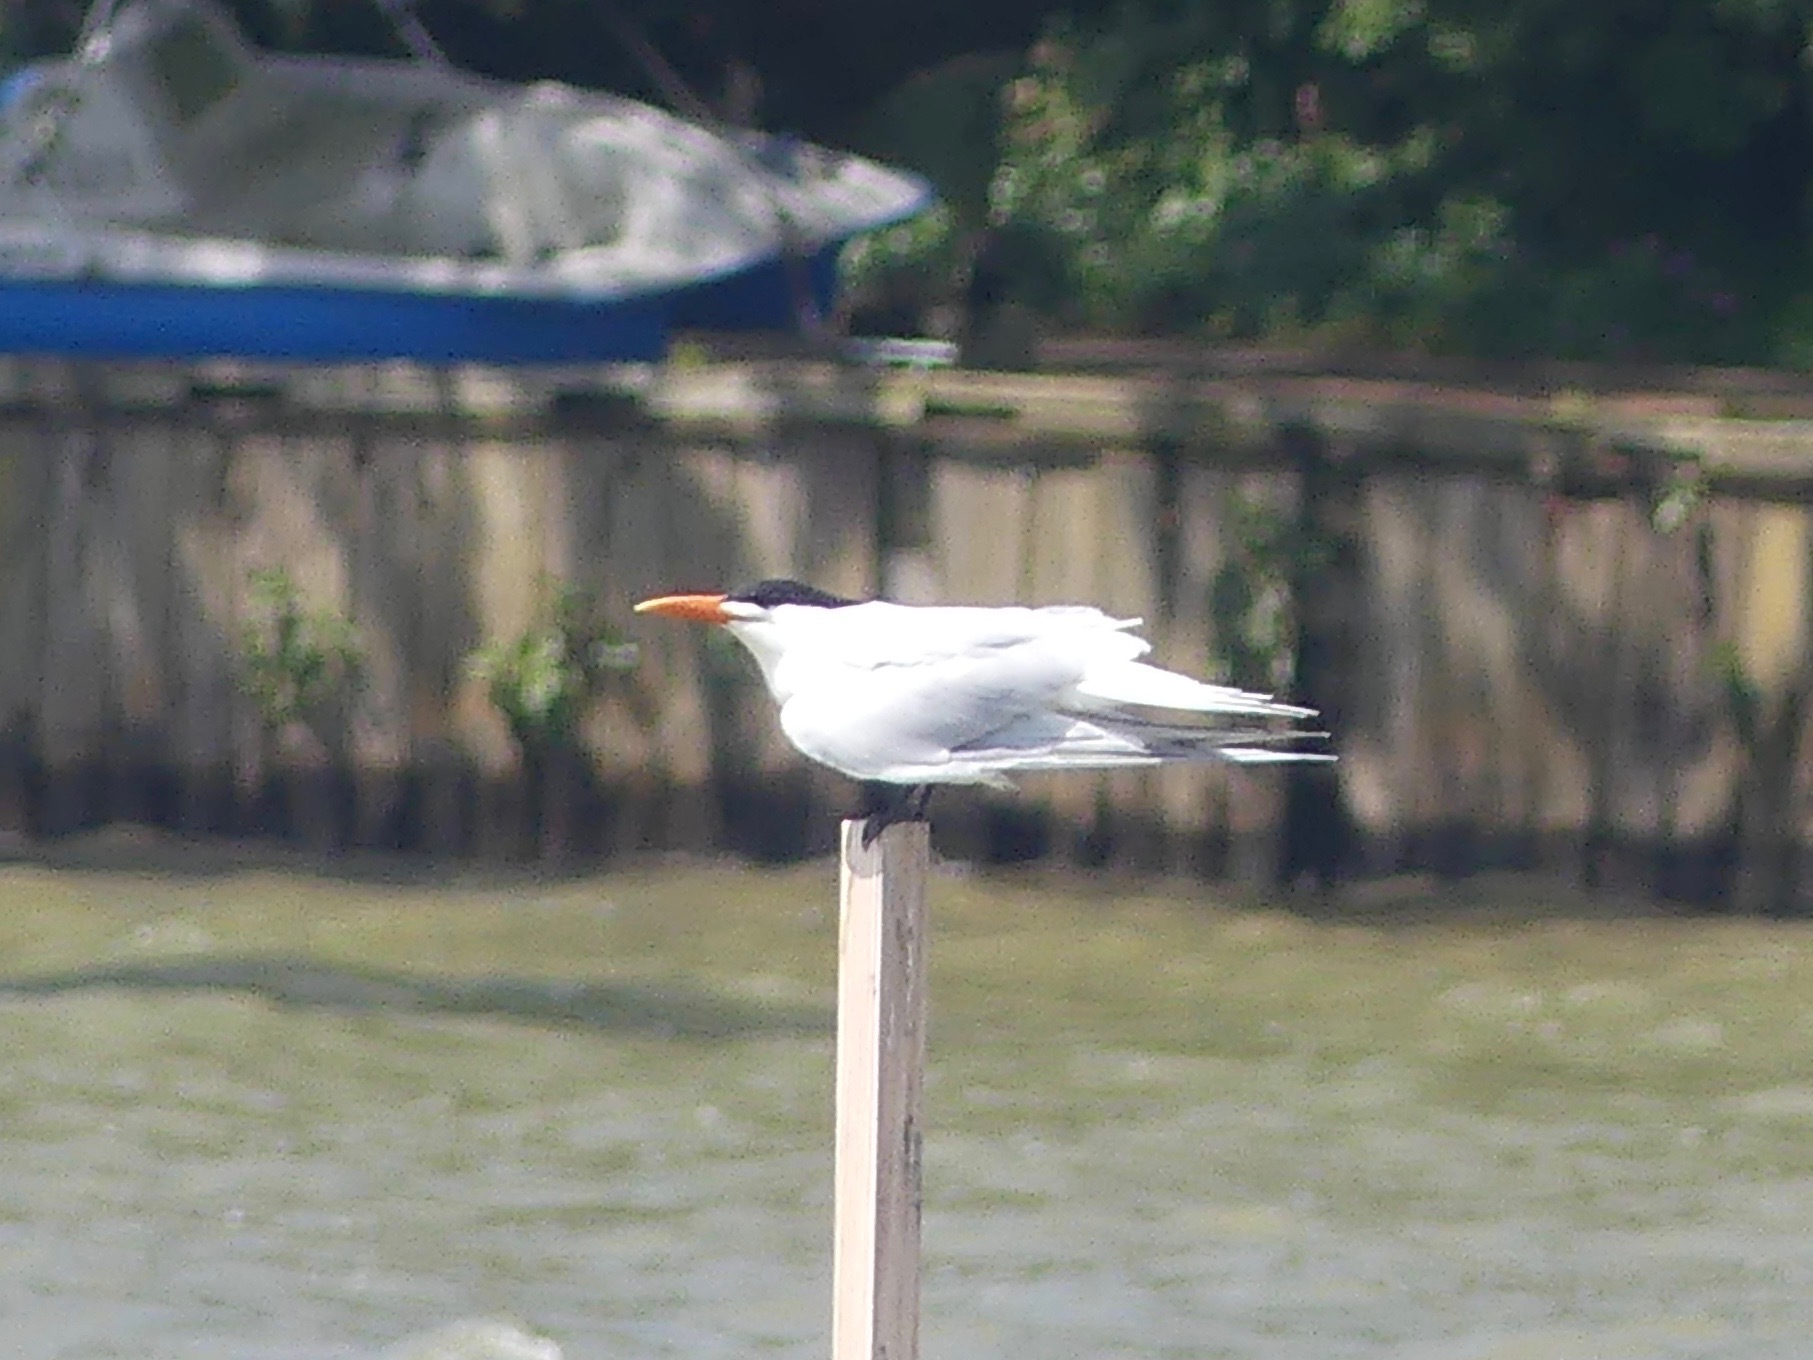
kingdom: Animalia
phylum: Chordata
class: Aves
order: Charadriiformes
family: Laridae
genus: Thalasseus
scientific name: Thalasseus maximus
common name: Royal tern
